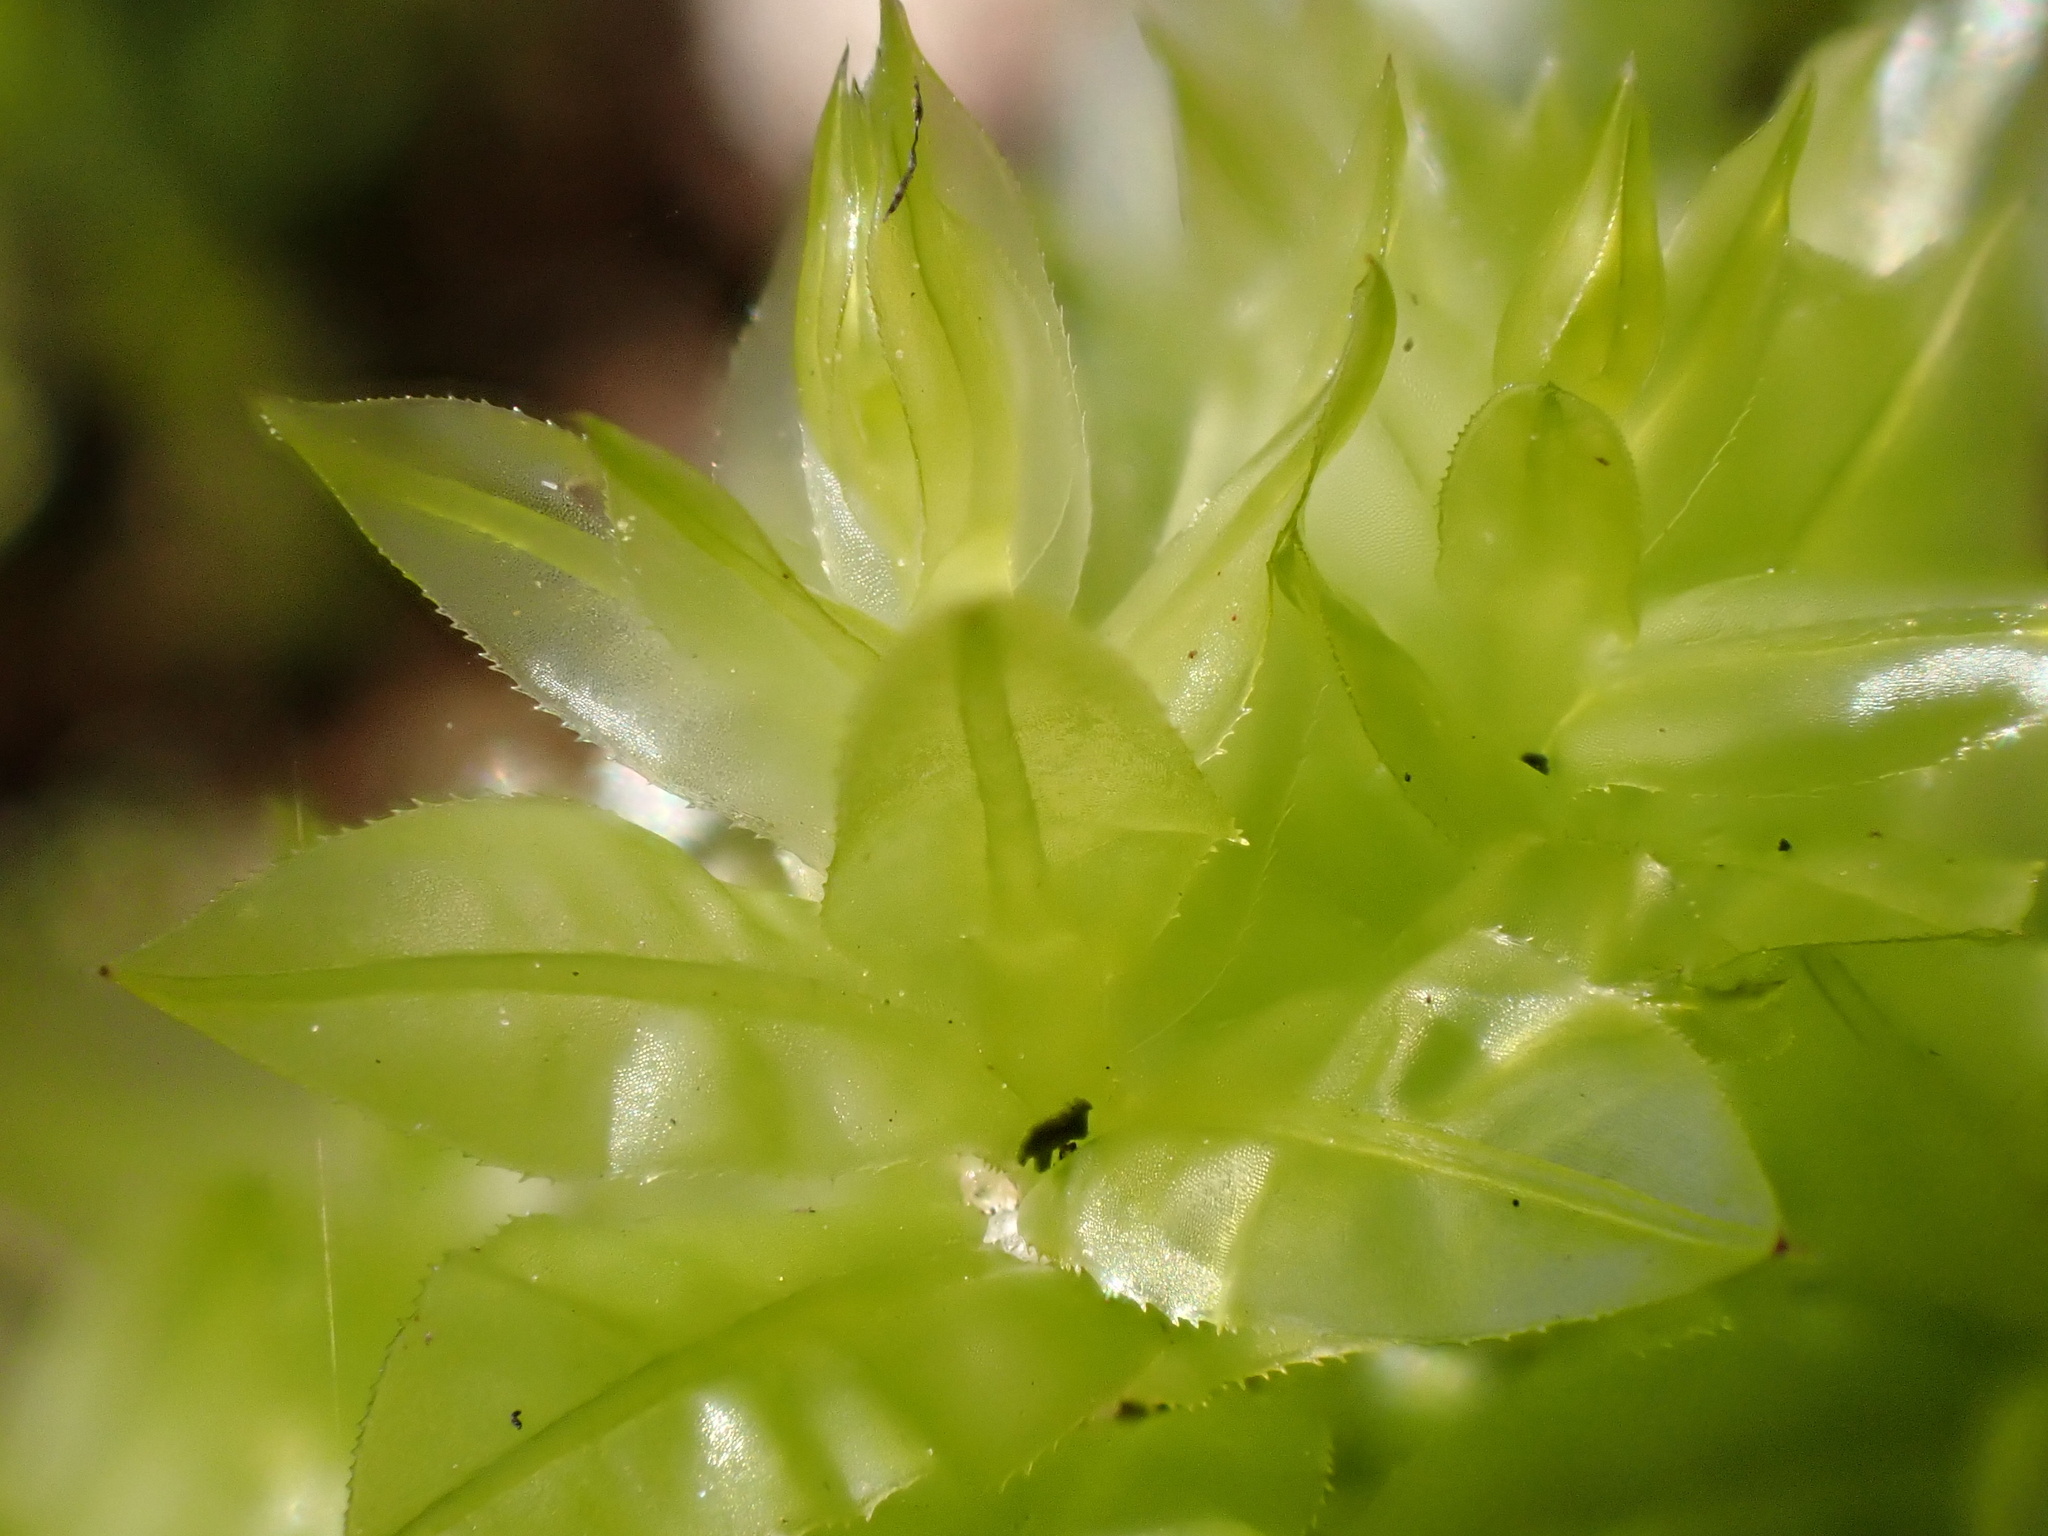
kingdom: Plantae
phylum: Bryophyta
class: Bryopsida
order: Bryales
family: Mniaceae
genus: Plagiomnium
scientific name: Plagiomnium undulatum
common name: Hart's-tongue thyme-moss
